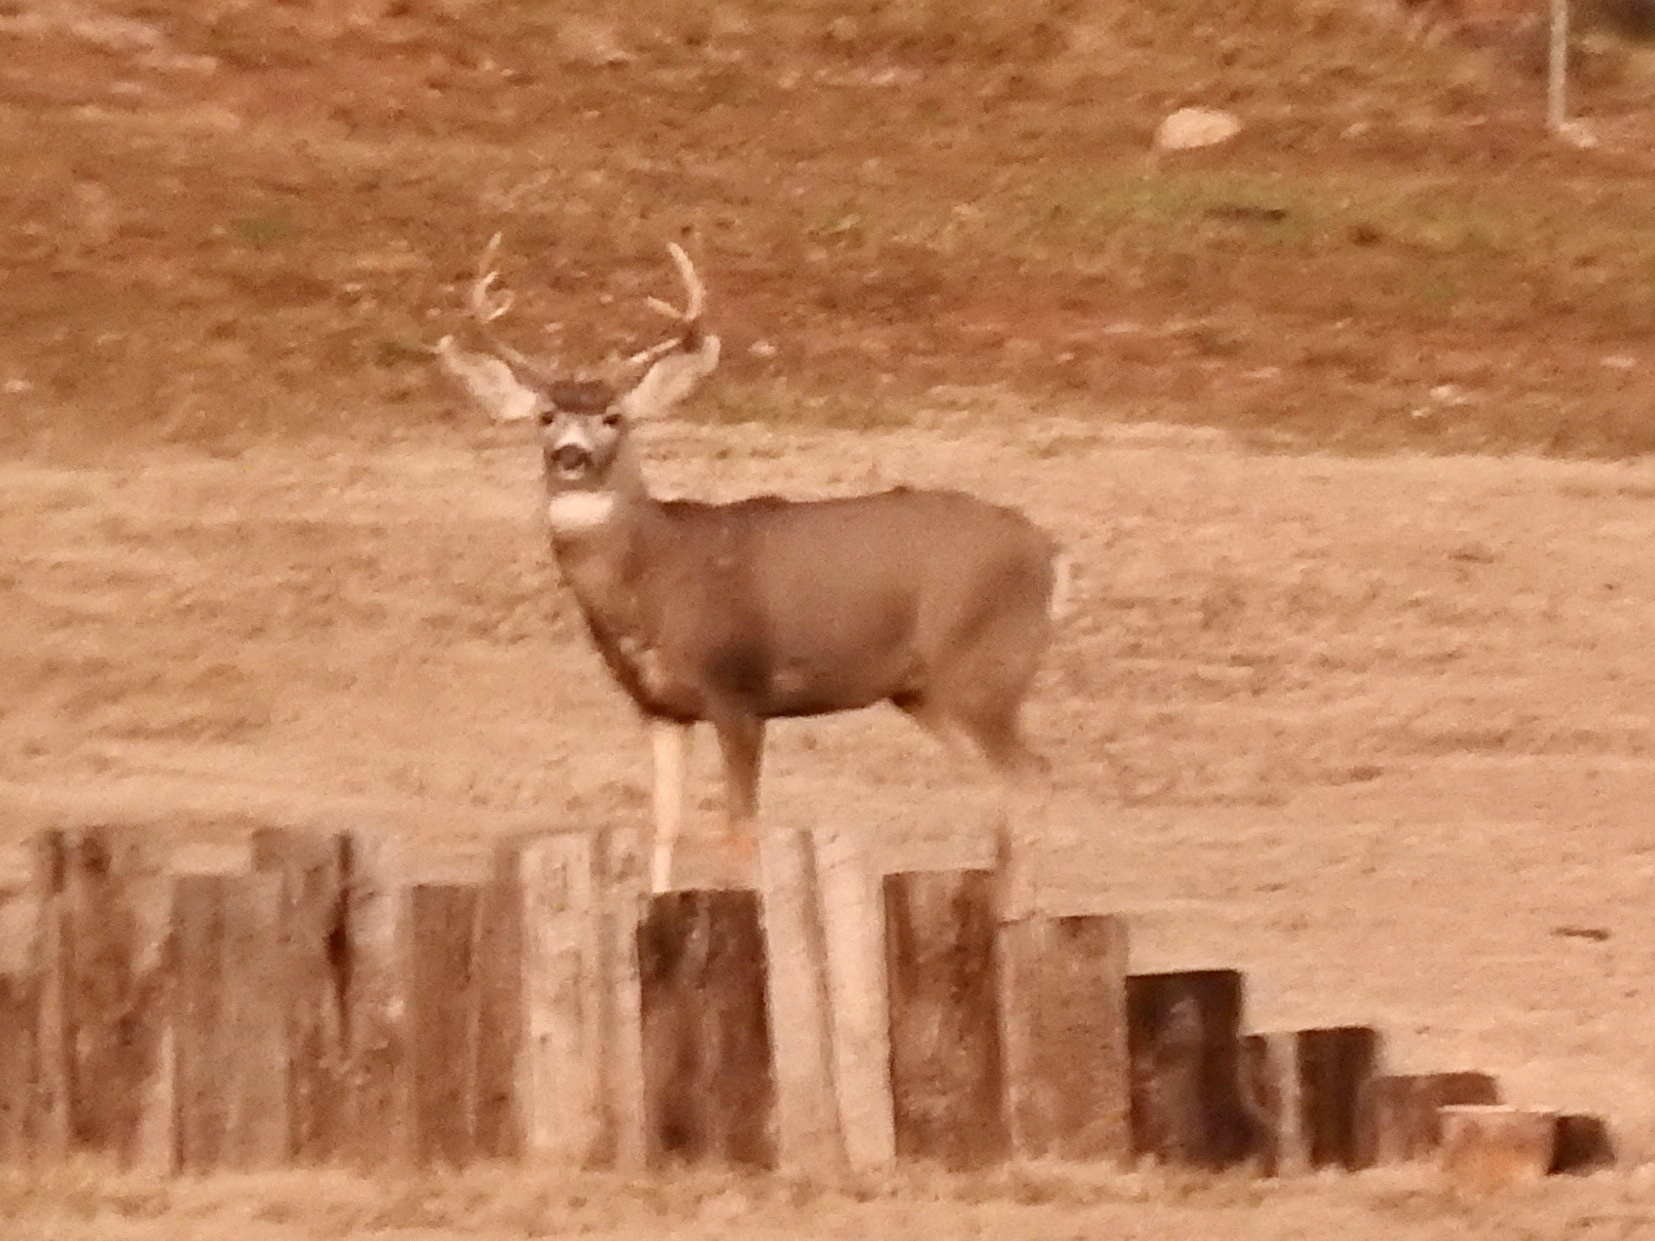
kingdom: Animalia
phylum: Chordata
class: Mammalia
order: Artiodactyla
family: Cervidae
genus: Odocoileus
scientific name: Odocoileus hemionus
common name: Mule deer
